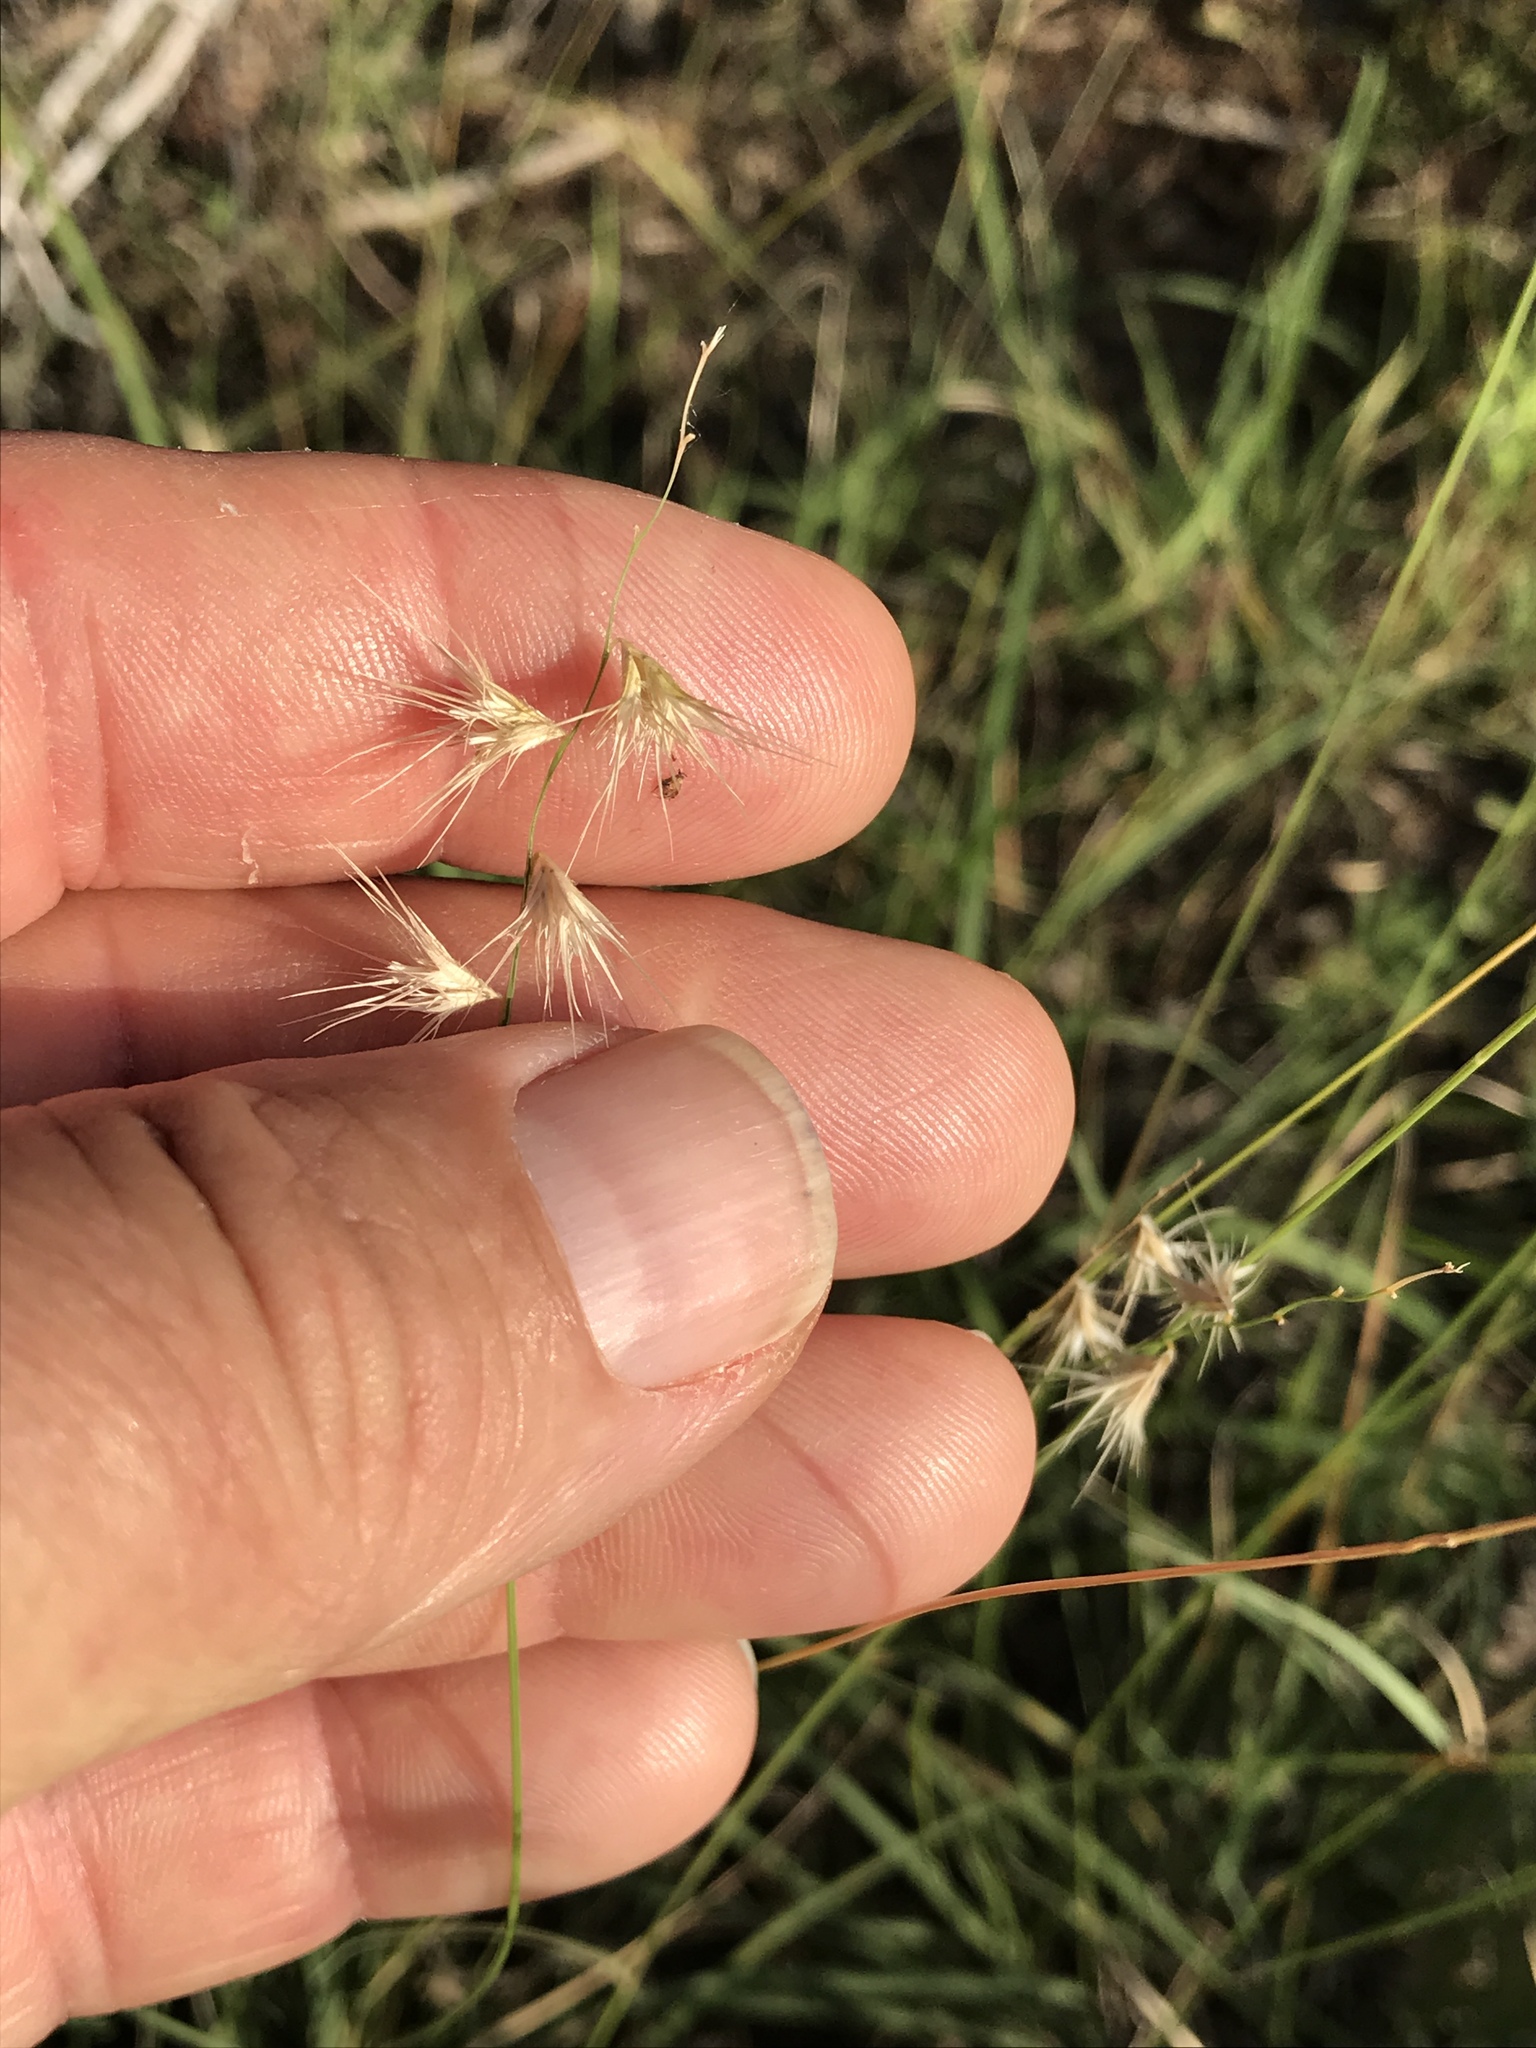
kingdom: Plantae
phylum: Tracheophyta
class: Liliopsida
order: Poales
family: Poaceae
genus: Bouteloua
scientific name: Bouteloua rigidiseta
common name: Texas grama
